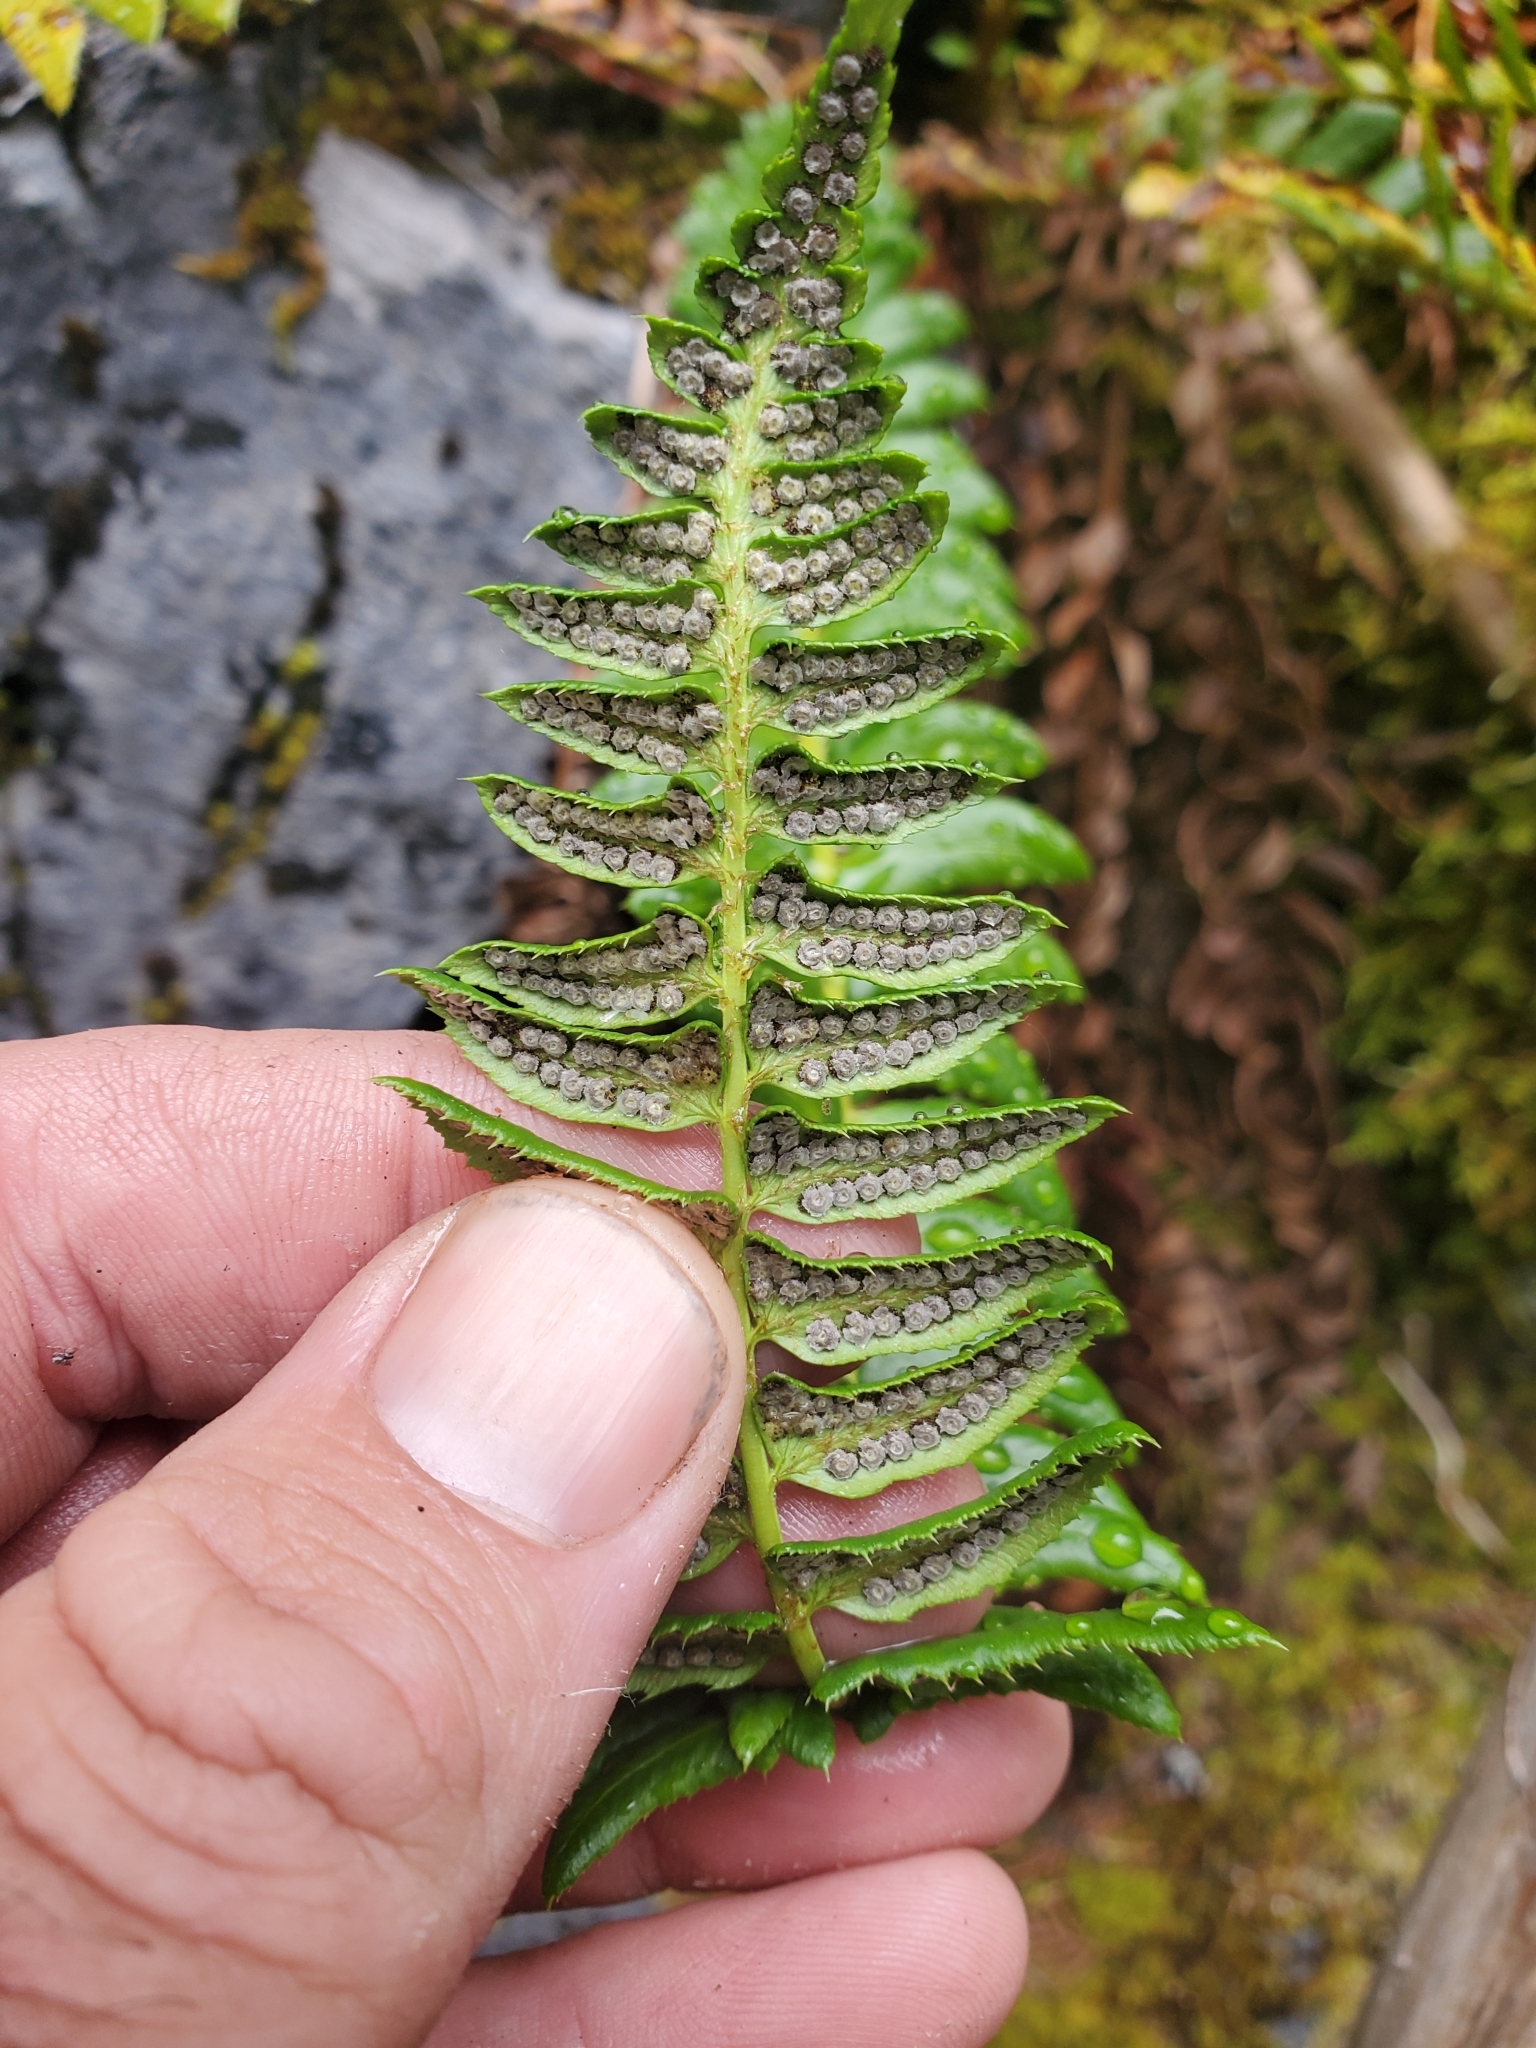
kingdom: Plantae
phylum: Tracheophyta
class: Polypodiopsida
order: Polypodiales
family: Dryopteridaceae
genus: Polystichum
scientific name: Polystichum lonchitis
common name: Holly fern
